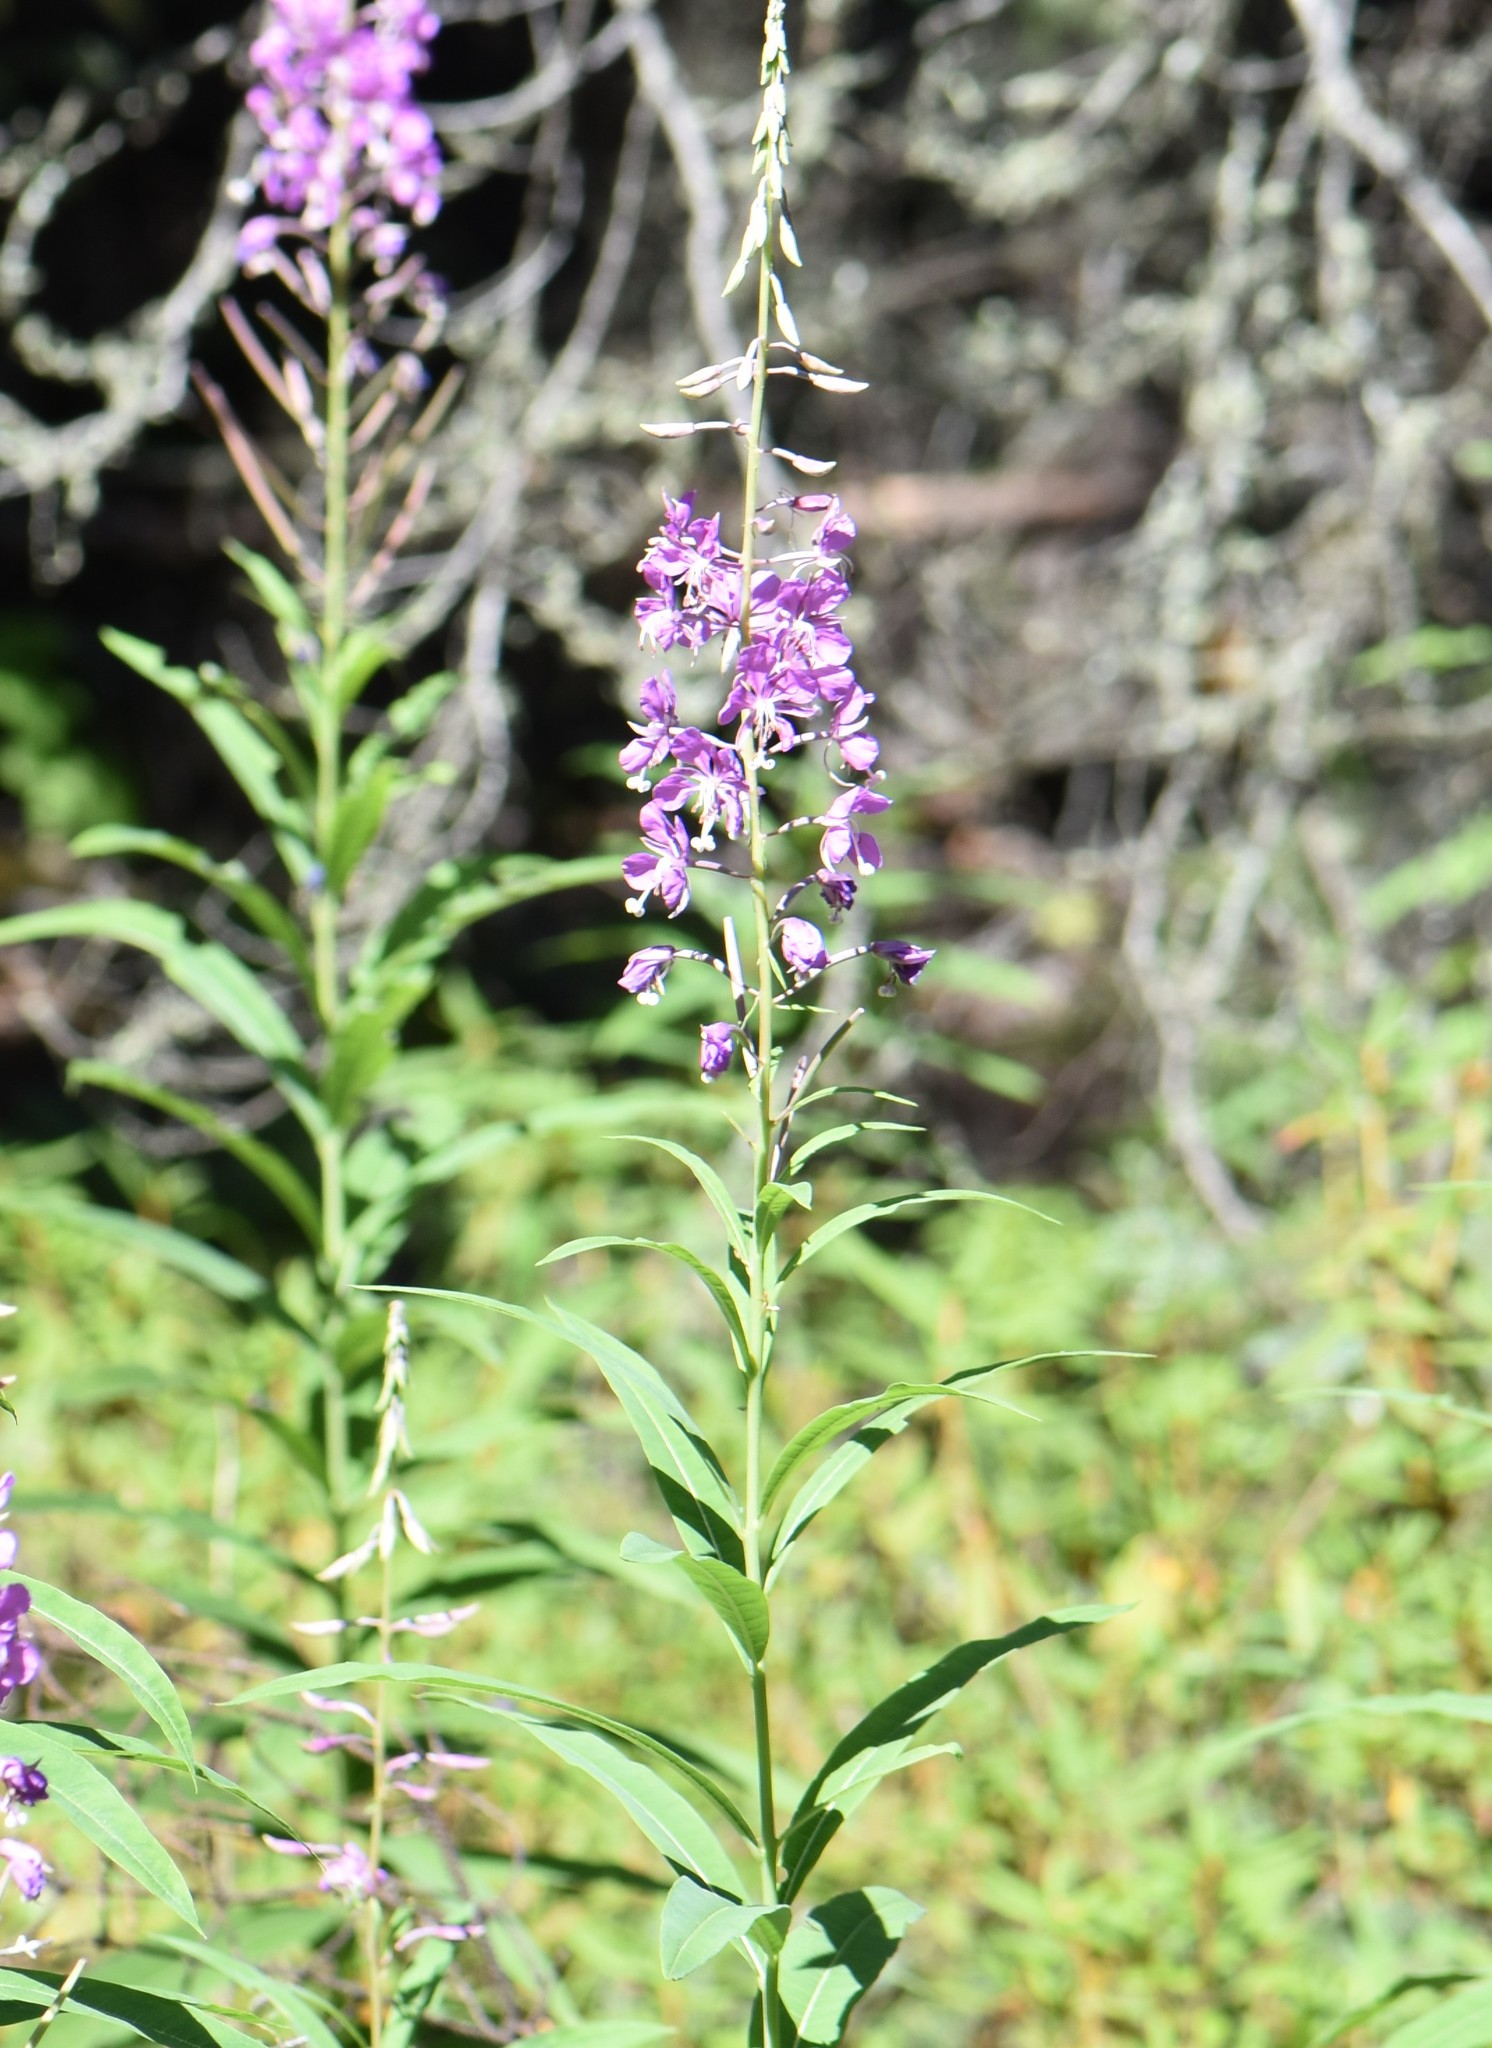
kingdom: Plantae
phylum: Tracheophyta
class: Magnoliopsida
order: Myrtales
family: Onagraceae
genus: Chamaenerion
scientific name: Chamaenerion angustifolium
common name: Fireweed
